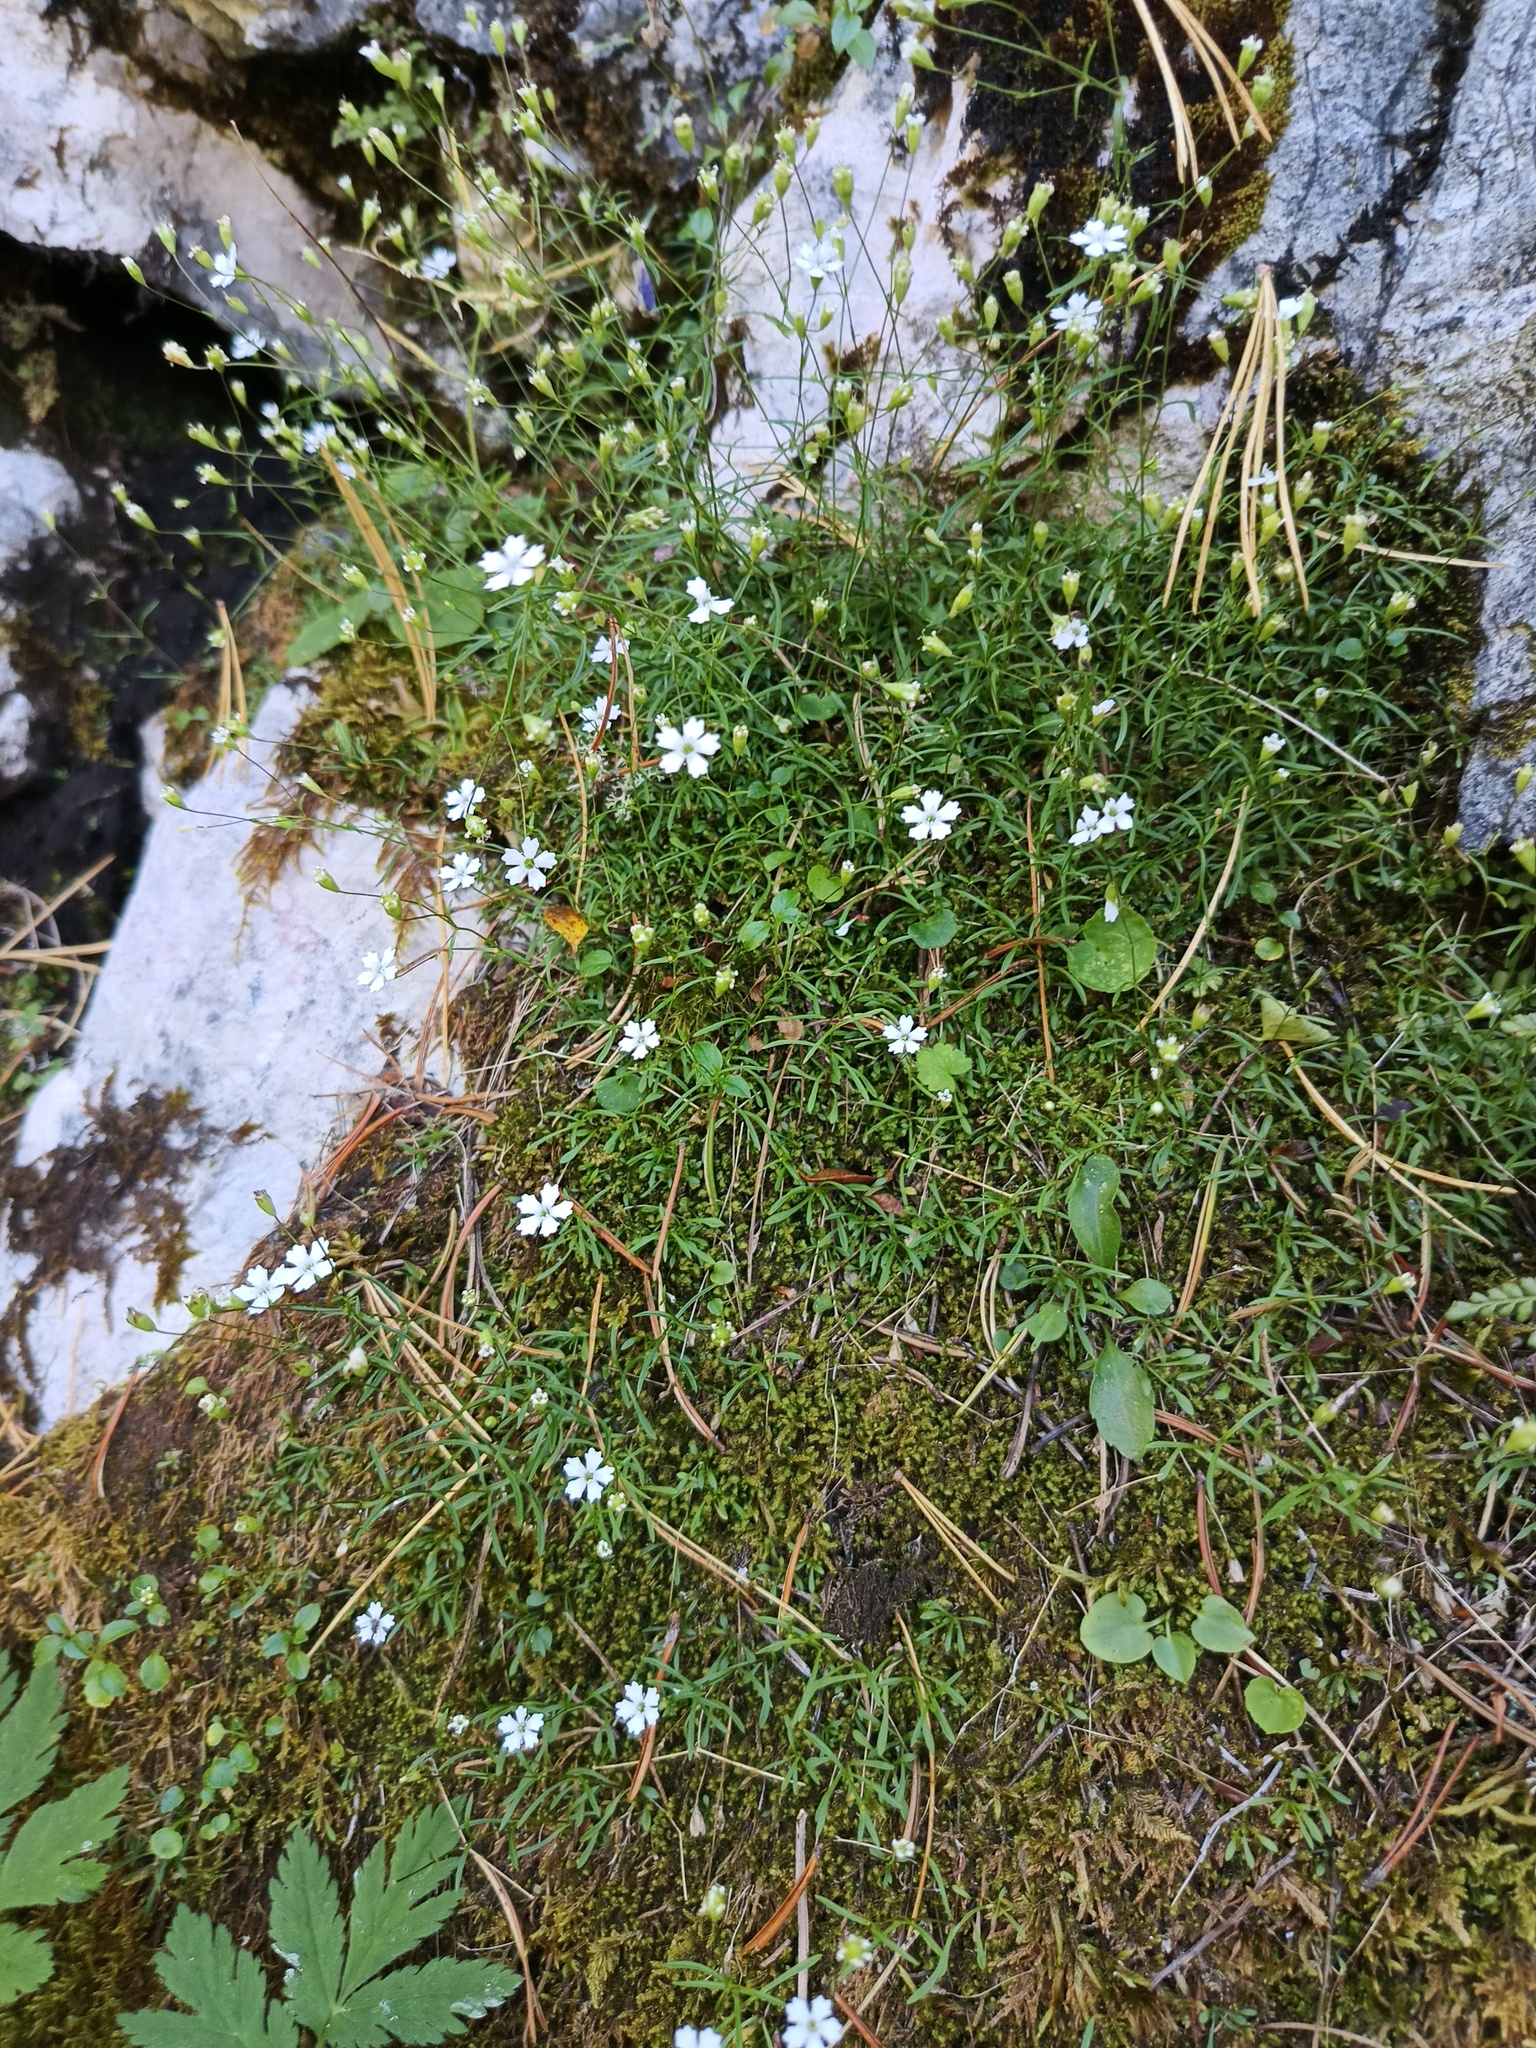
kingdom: Plantae
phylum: Tracheophyta
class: Magnoliopsida
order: Caryophyllales
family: Caryophyllaceae
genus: Heliosperma
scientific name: Heliosperma pusillum
